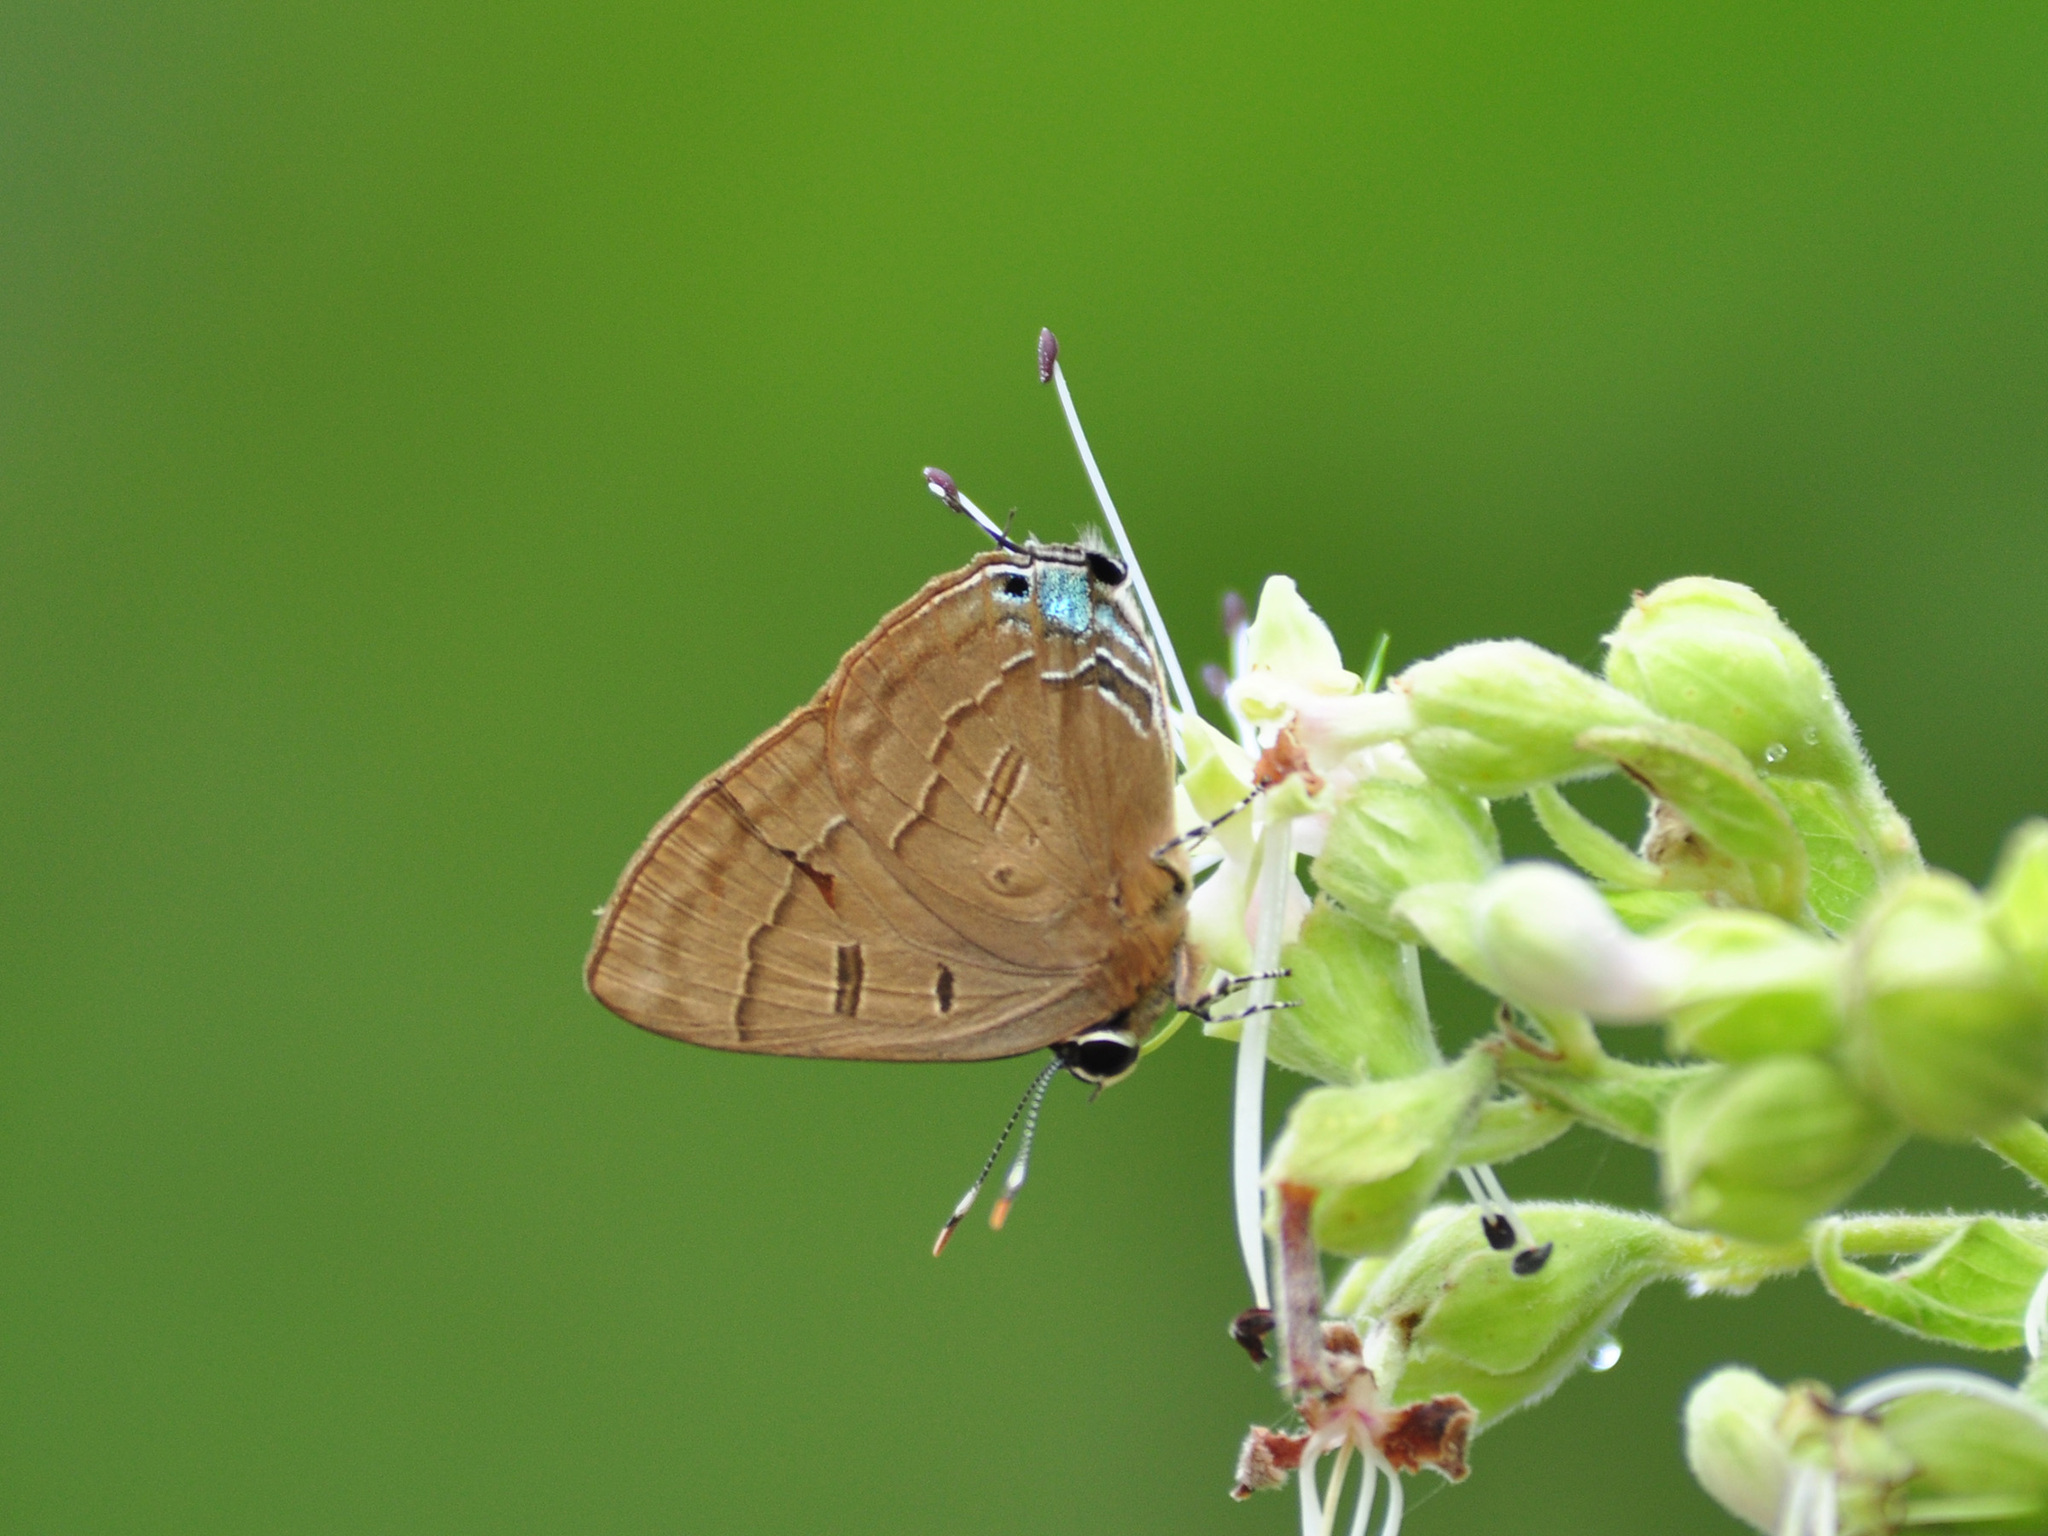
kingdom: Animalia
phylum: Arthropoda
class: Insecta
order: Lepidoptera
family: Lycaenidae
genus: Rapala
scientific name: Rapala pheretima
